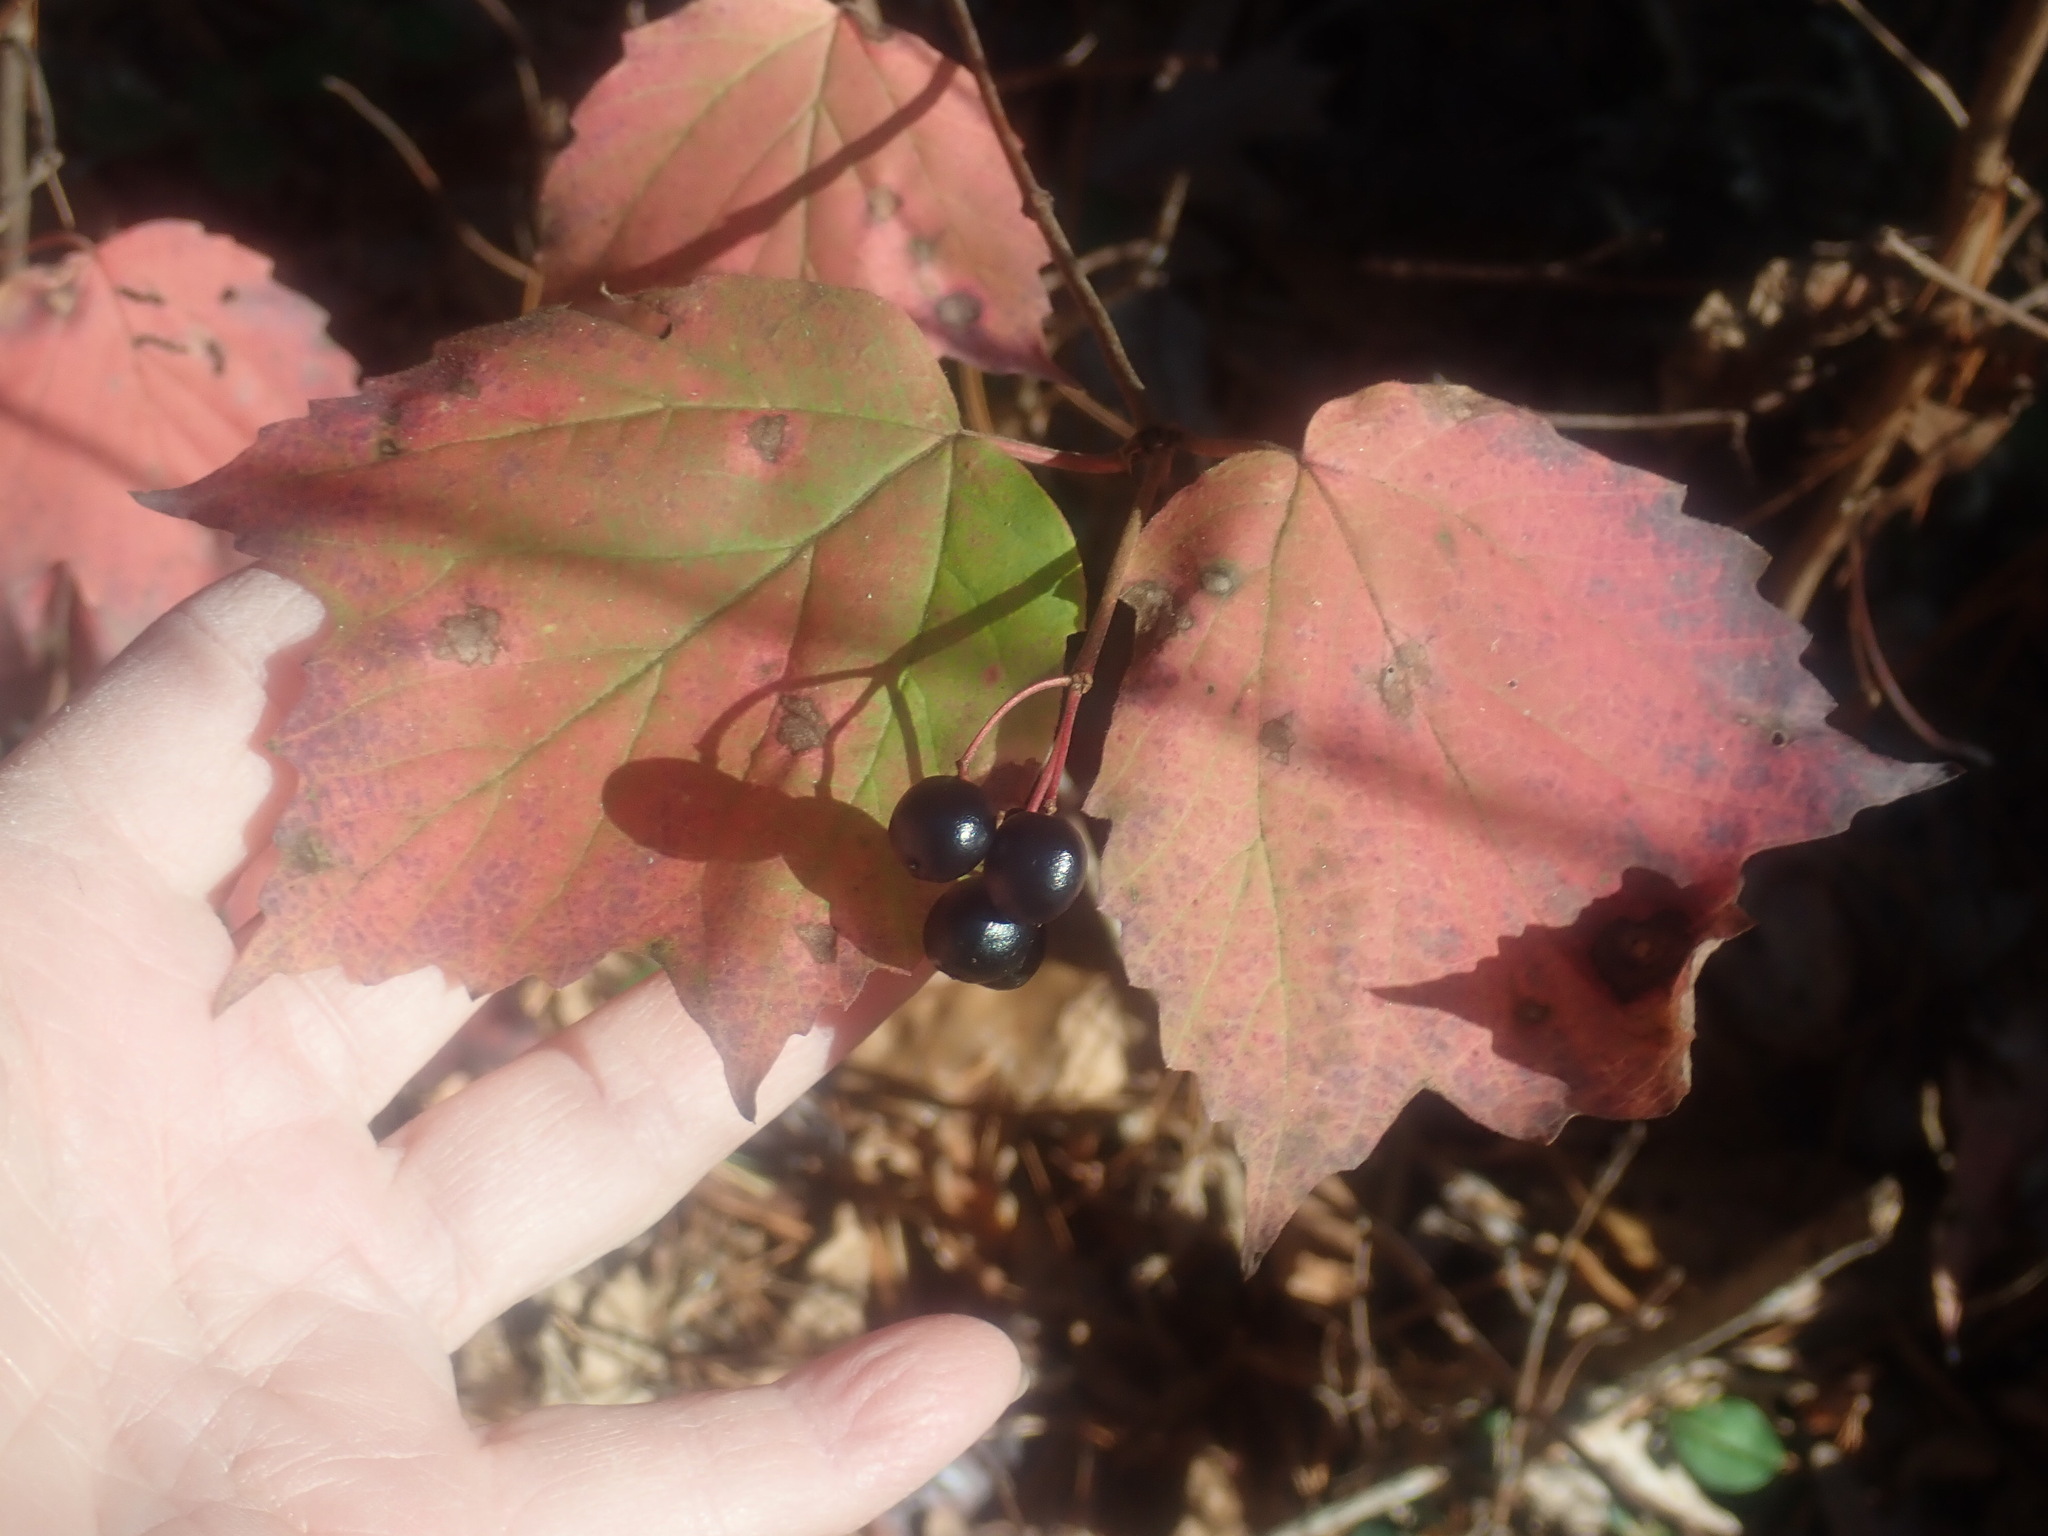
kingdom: Plantae
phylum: Tracheophyta
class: Magnoliopsida
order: Dipsacales
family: Viburnaceae
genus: Viburnum
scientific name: Viburnum acerifolium
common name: Dockmackie
